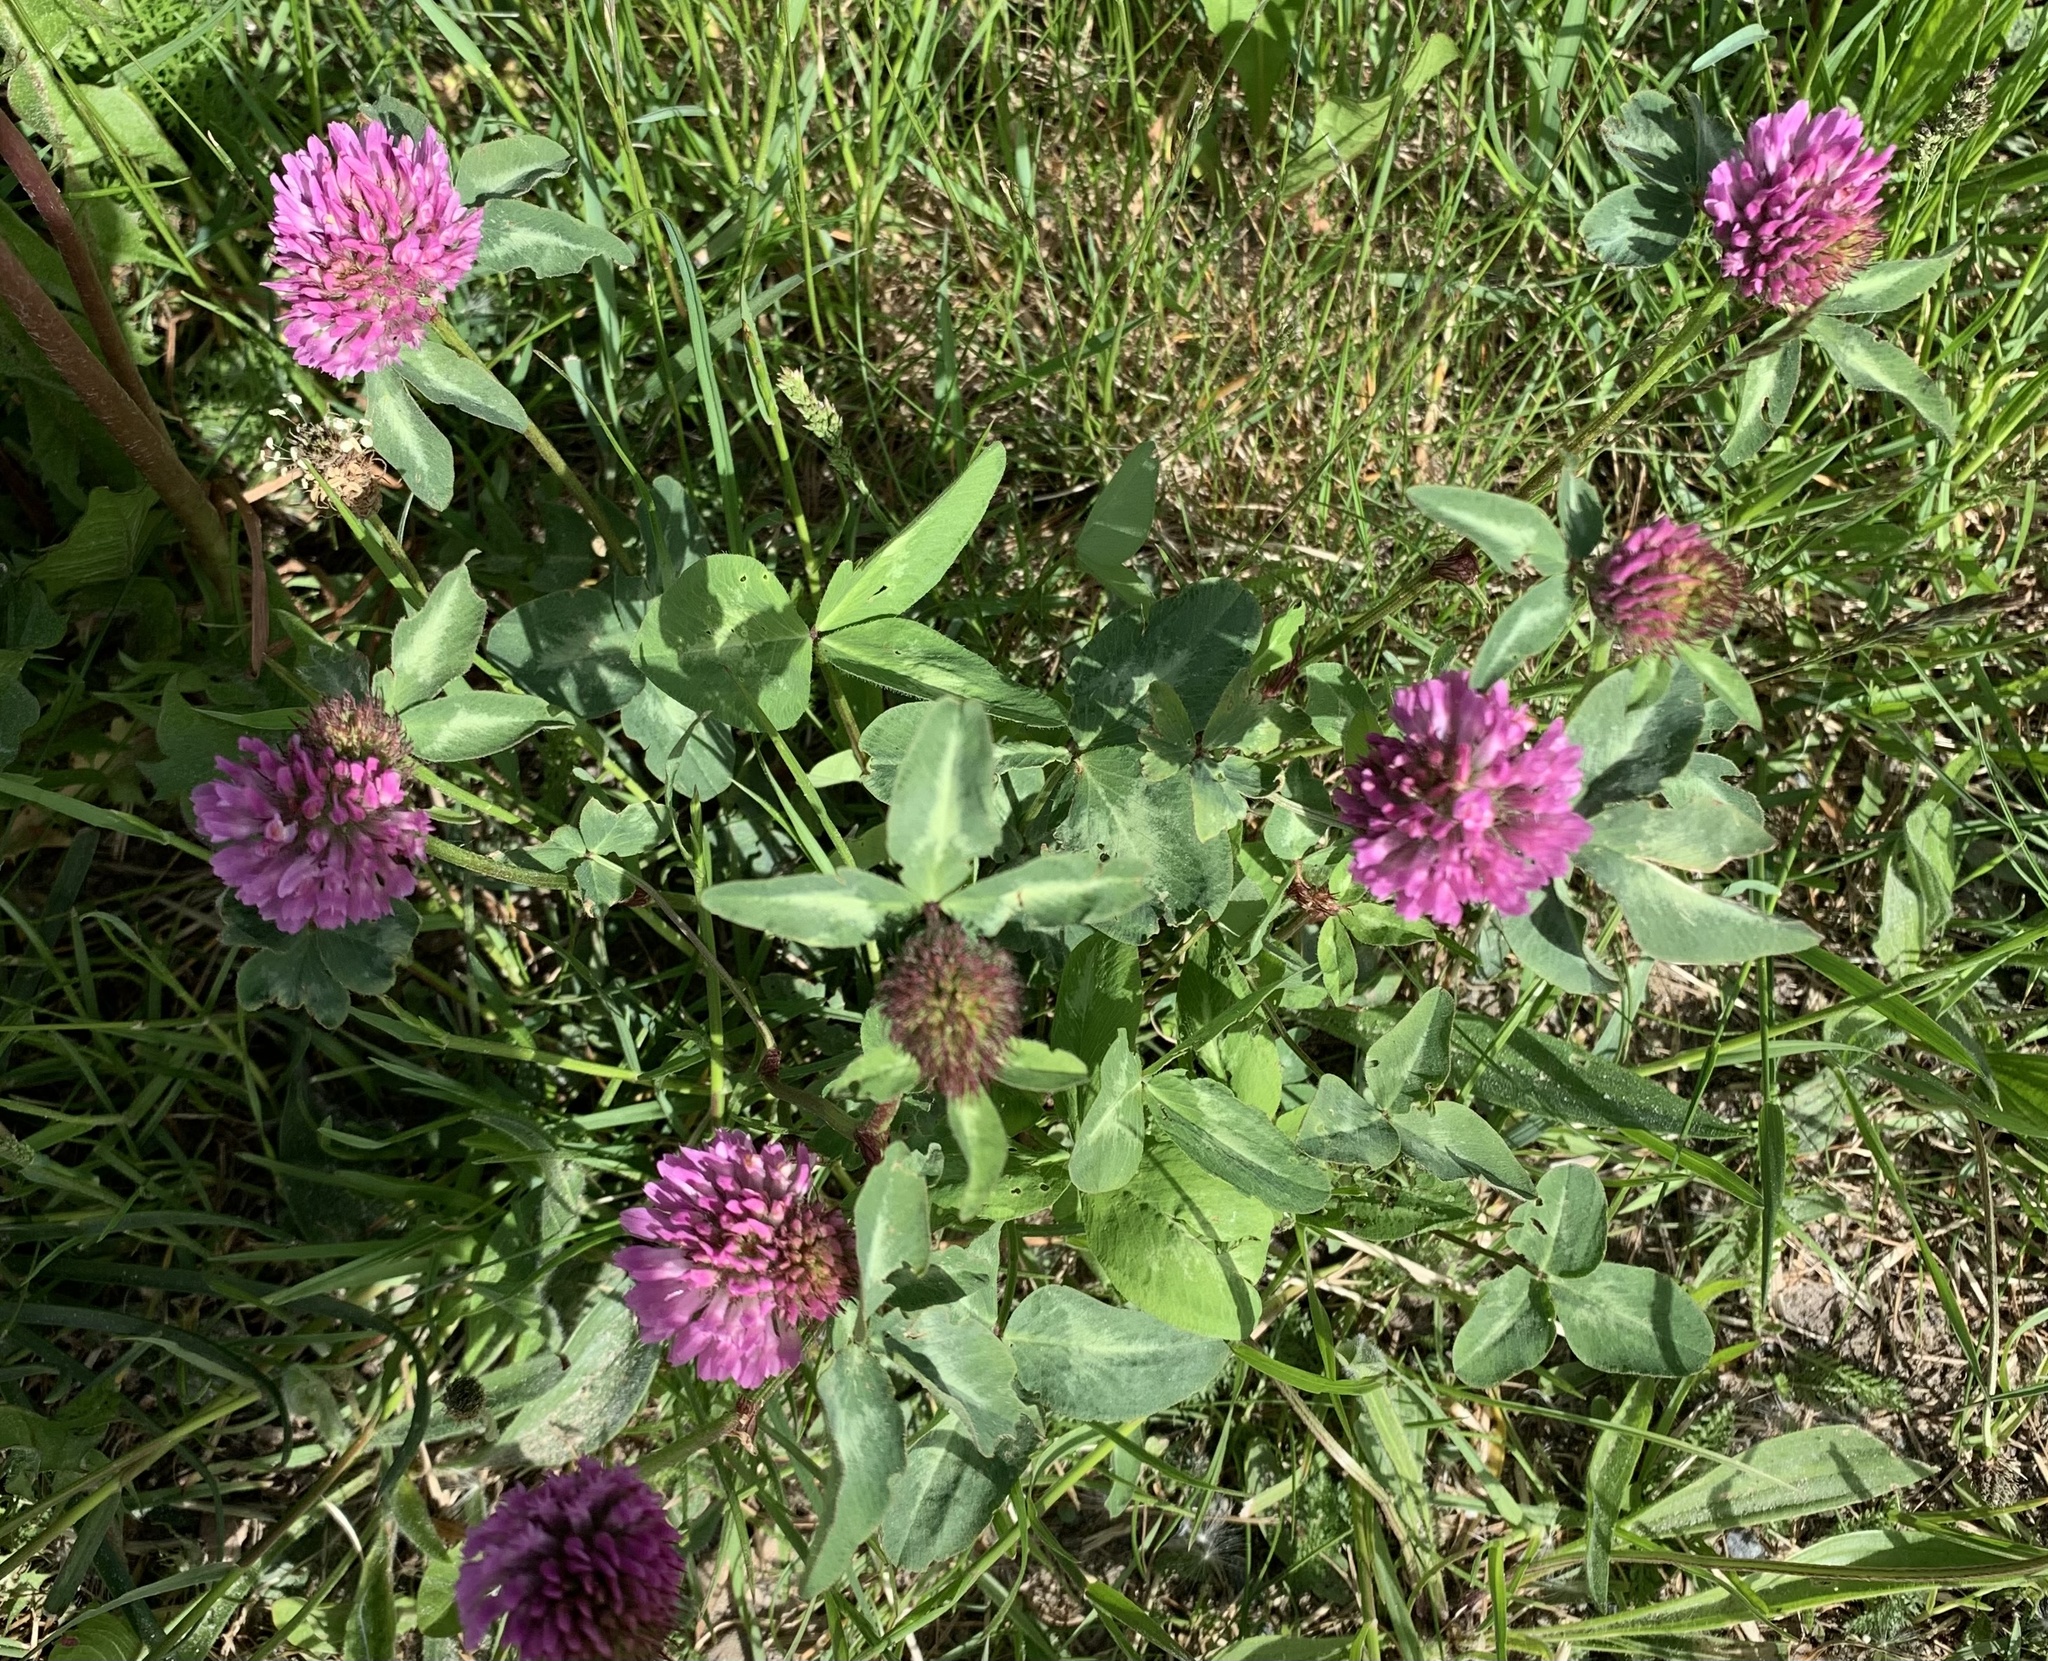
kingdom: Plantae
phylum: Tracheophyta
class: Magnoliopsida
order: Fabales
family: Fabaceae
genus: Trifolium
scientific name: Trifolium pratense
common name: Red clover
